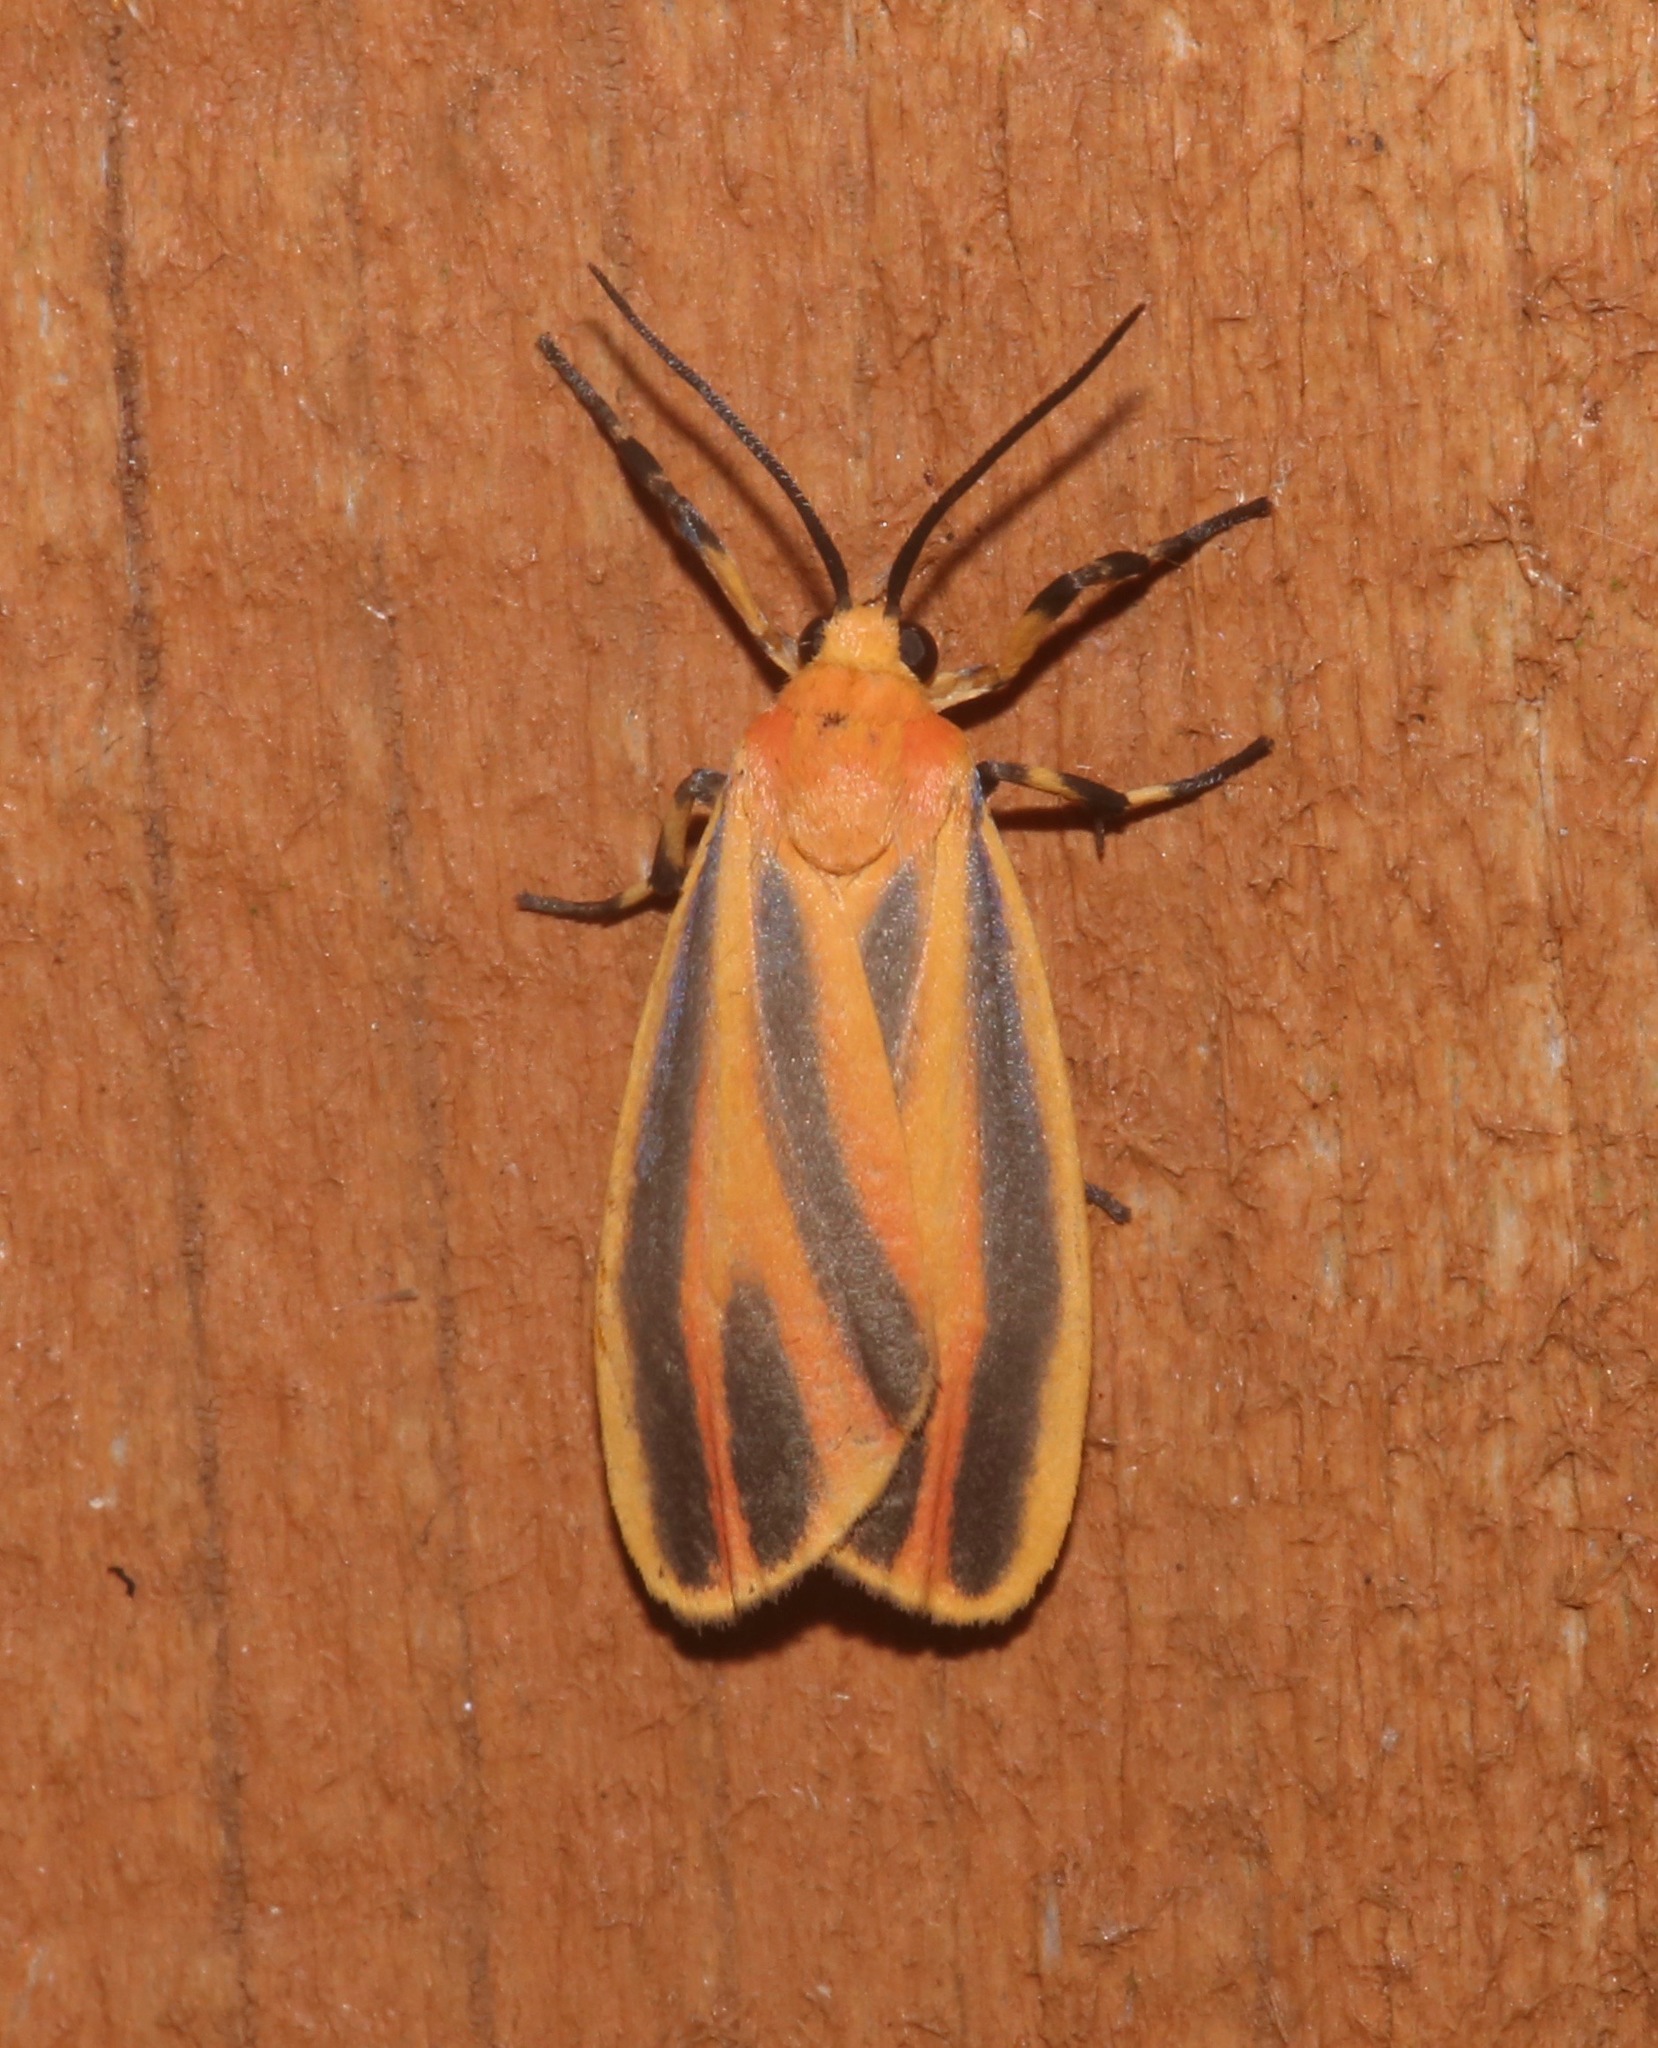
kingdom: Animalia
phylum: Arthropoda
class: Insecta
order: Lepidoptera
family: Erebidae
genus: Hypoprepia
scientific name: Hypoprepia fucosa
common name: Painted lichen moth
